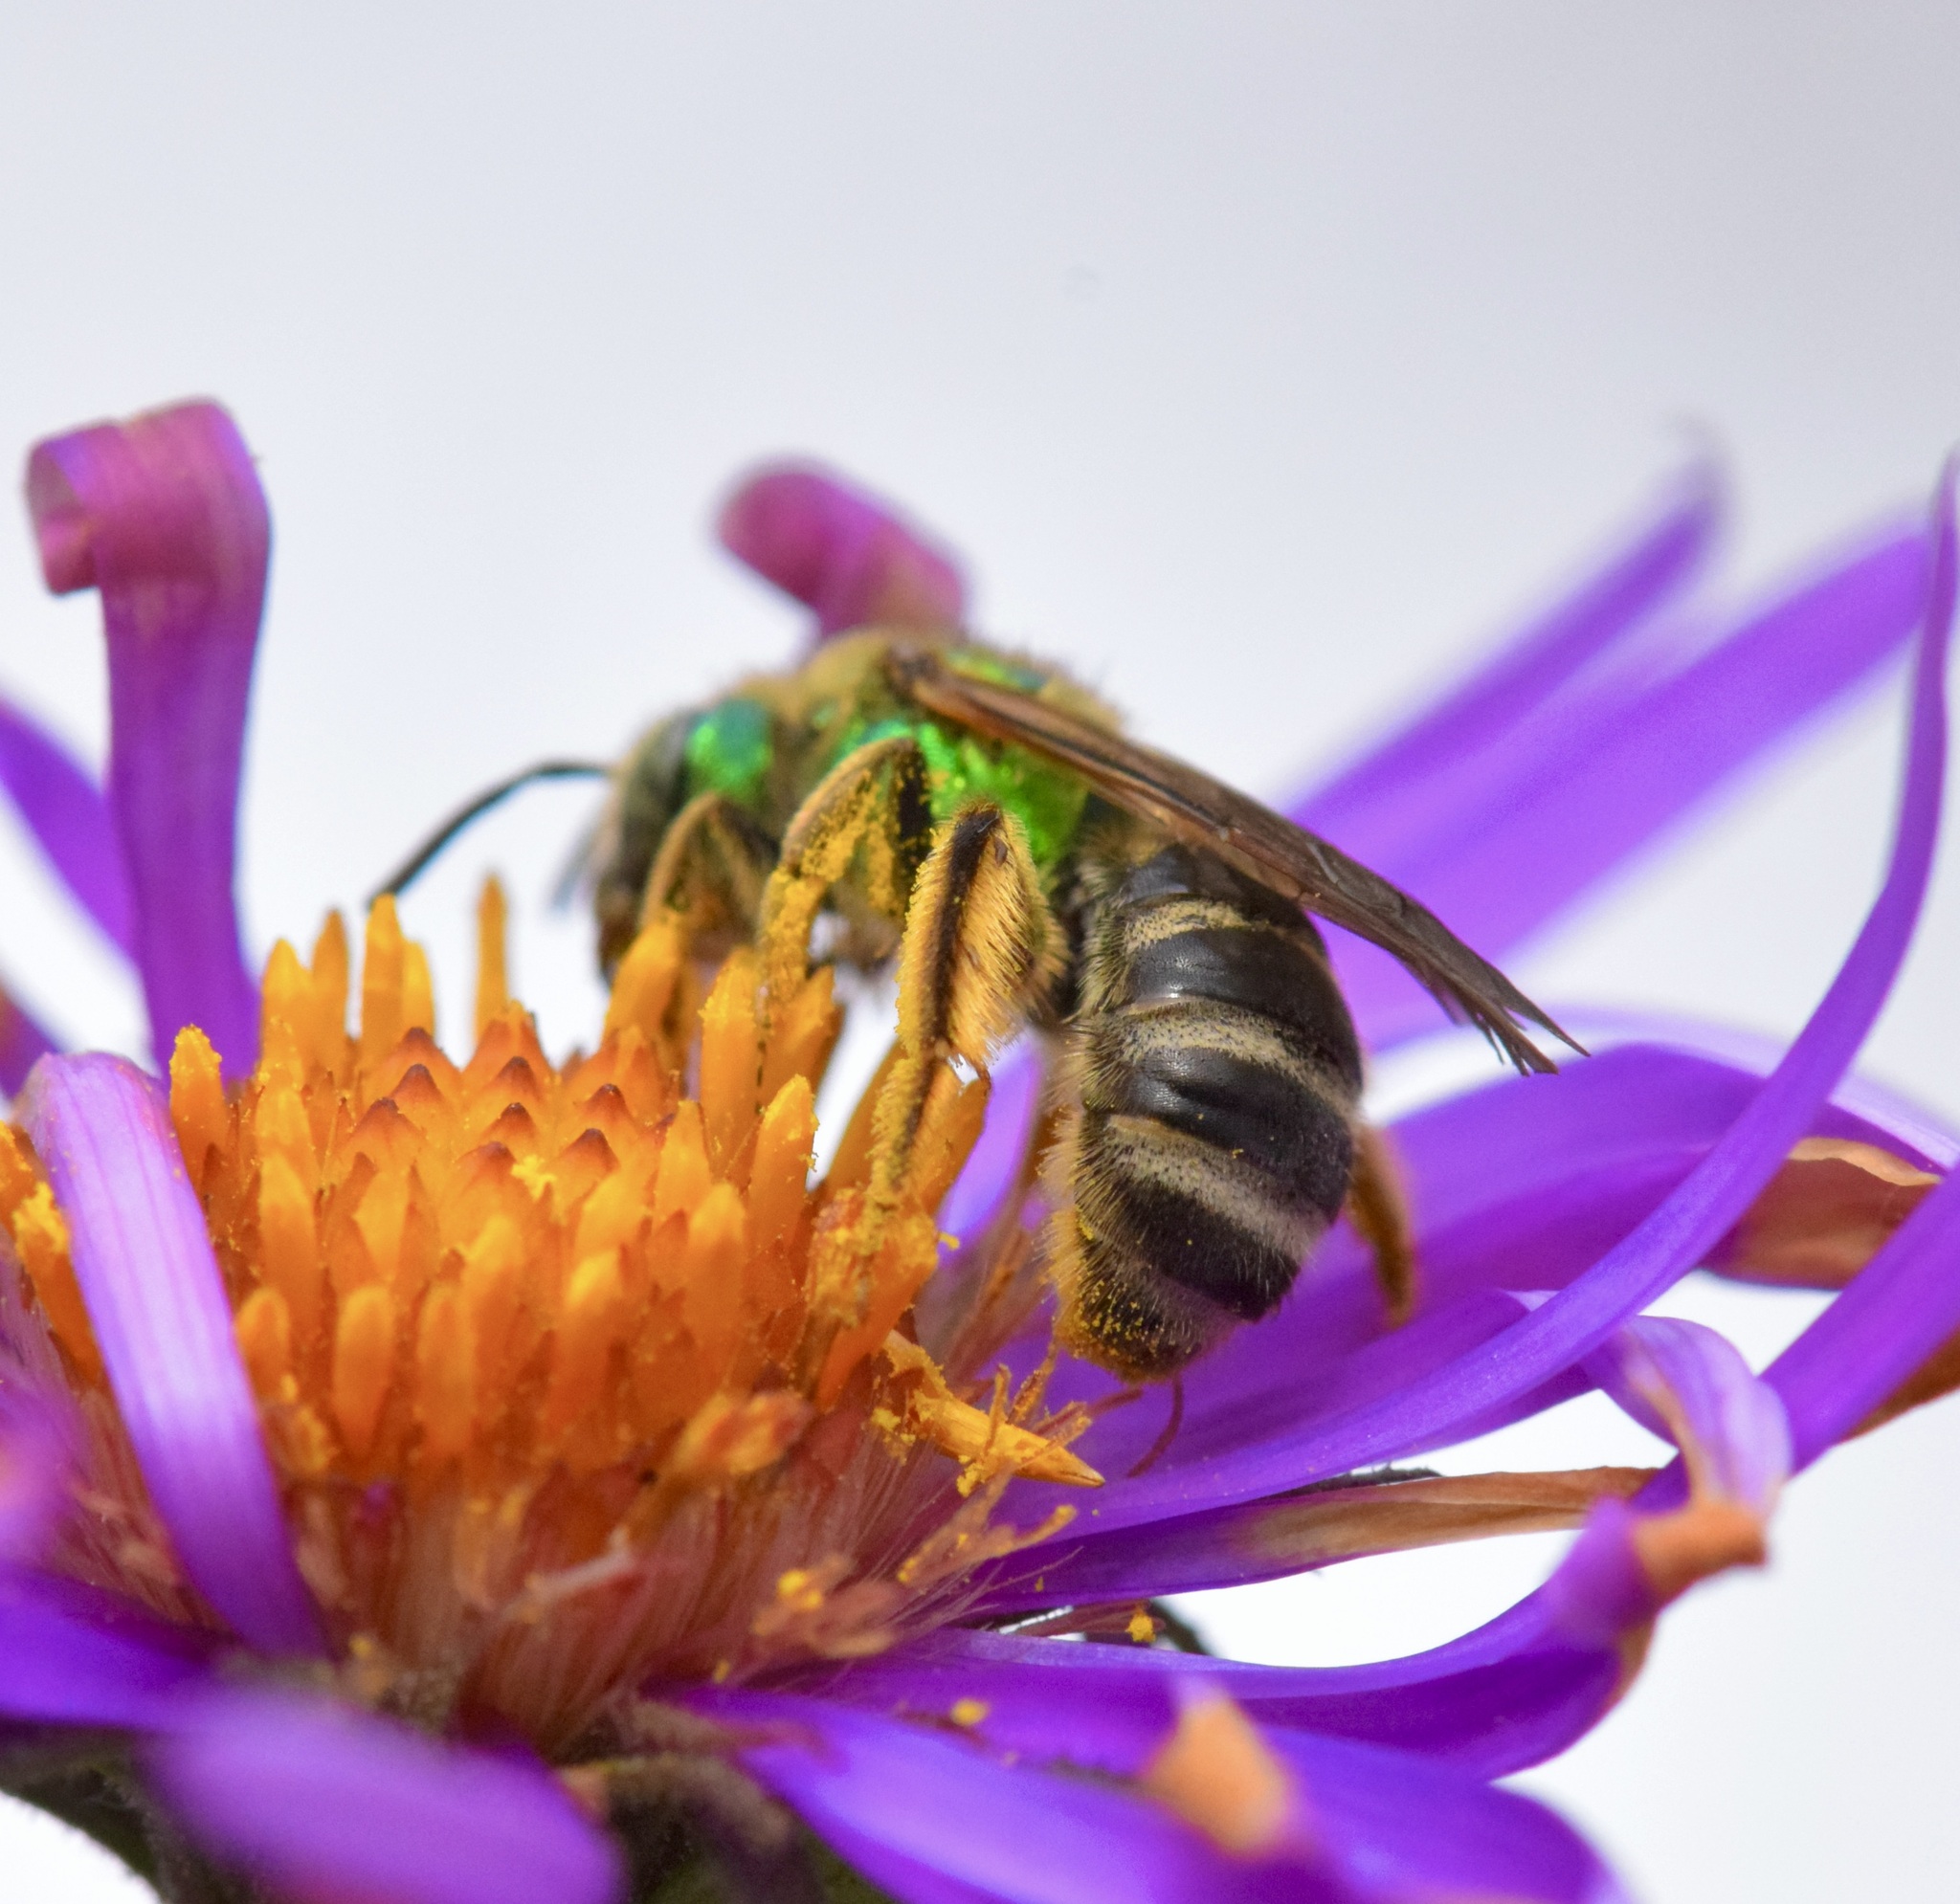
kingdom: Animalia
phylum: Arthropoda
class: Insecta
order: Hymenoptera
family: Halictidae
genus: Agapostemon
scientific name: Agapostemon virescens
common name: Bicolored striped sweat bee
